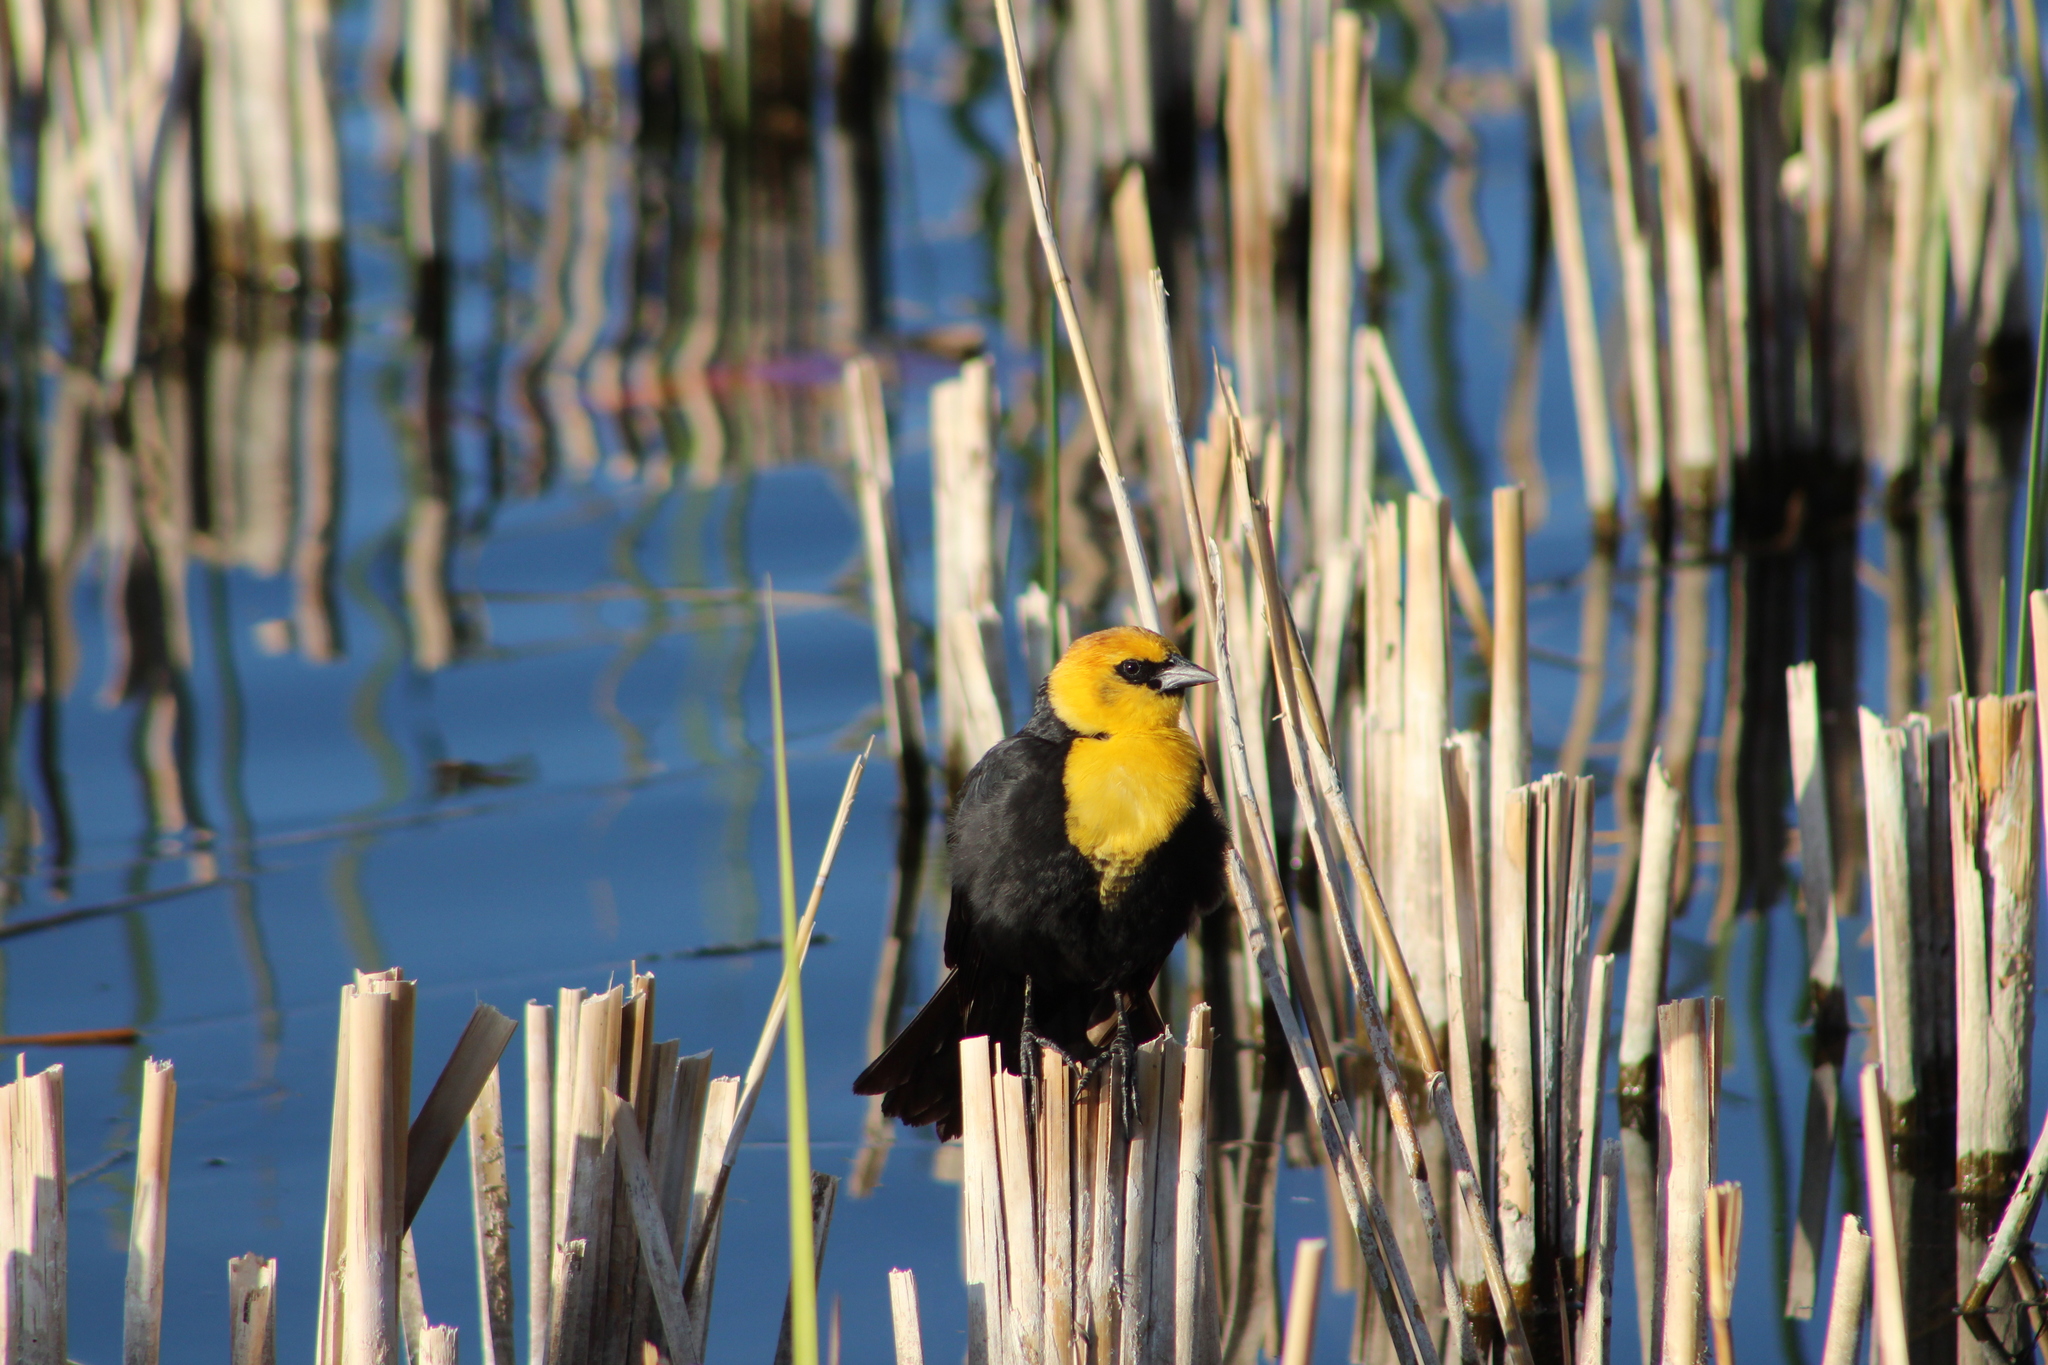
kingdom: Animalia
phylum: Chordata
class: Aves
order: Passeriformes
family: Icteridae
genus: Xanthocephalus
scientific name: Xanthocephalus xanthocephalus
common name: Yellow-headed blackbird
